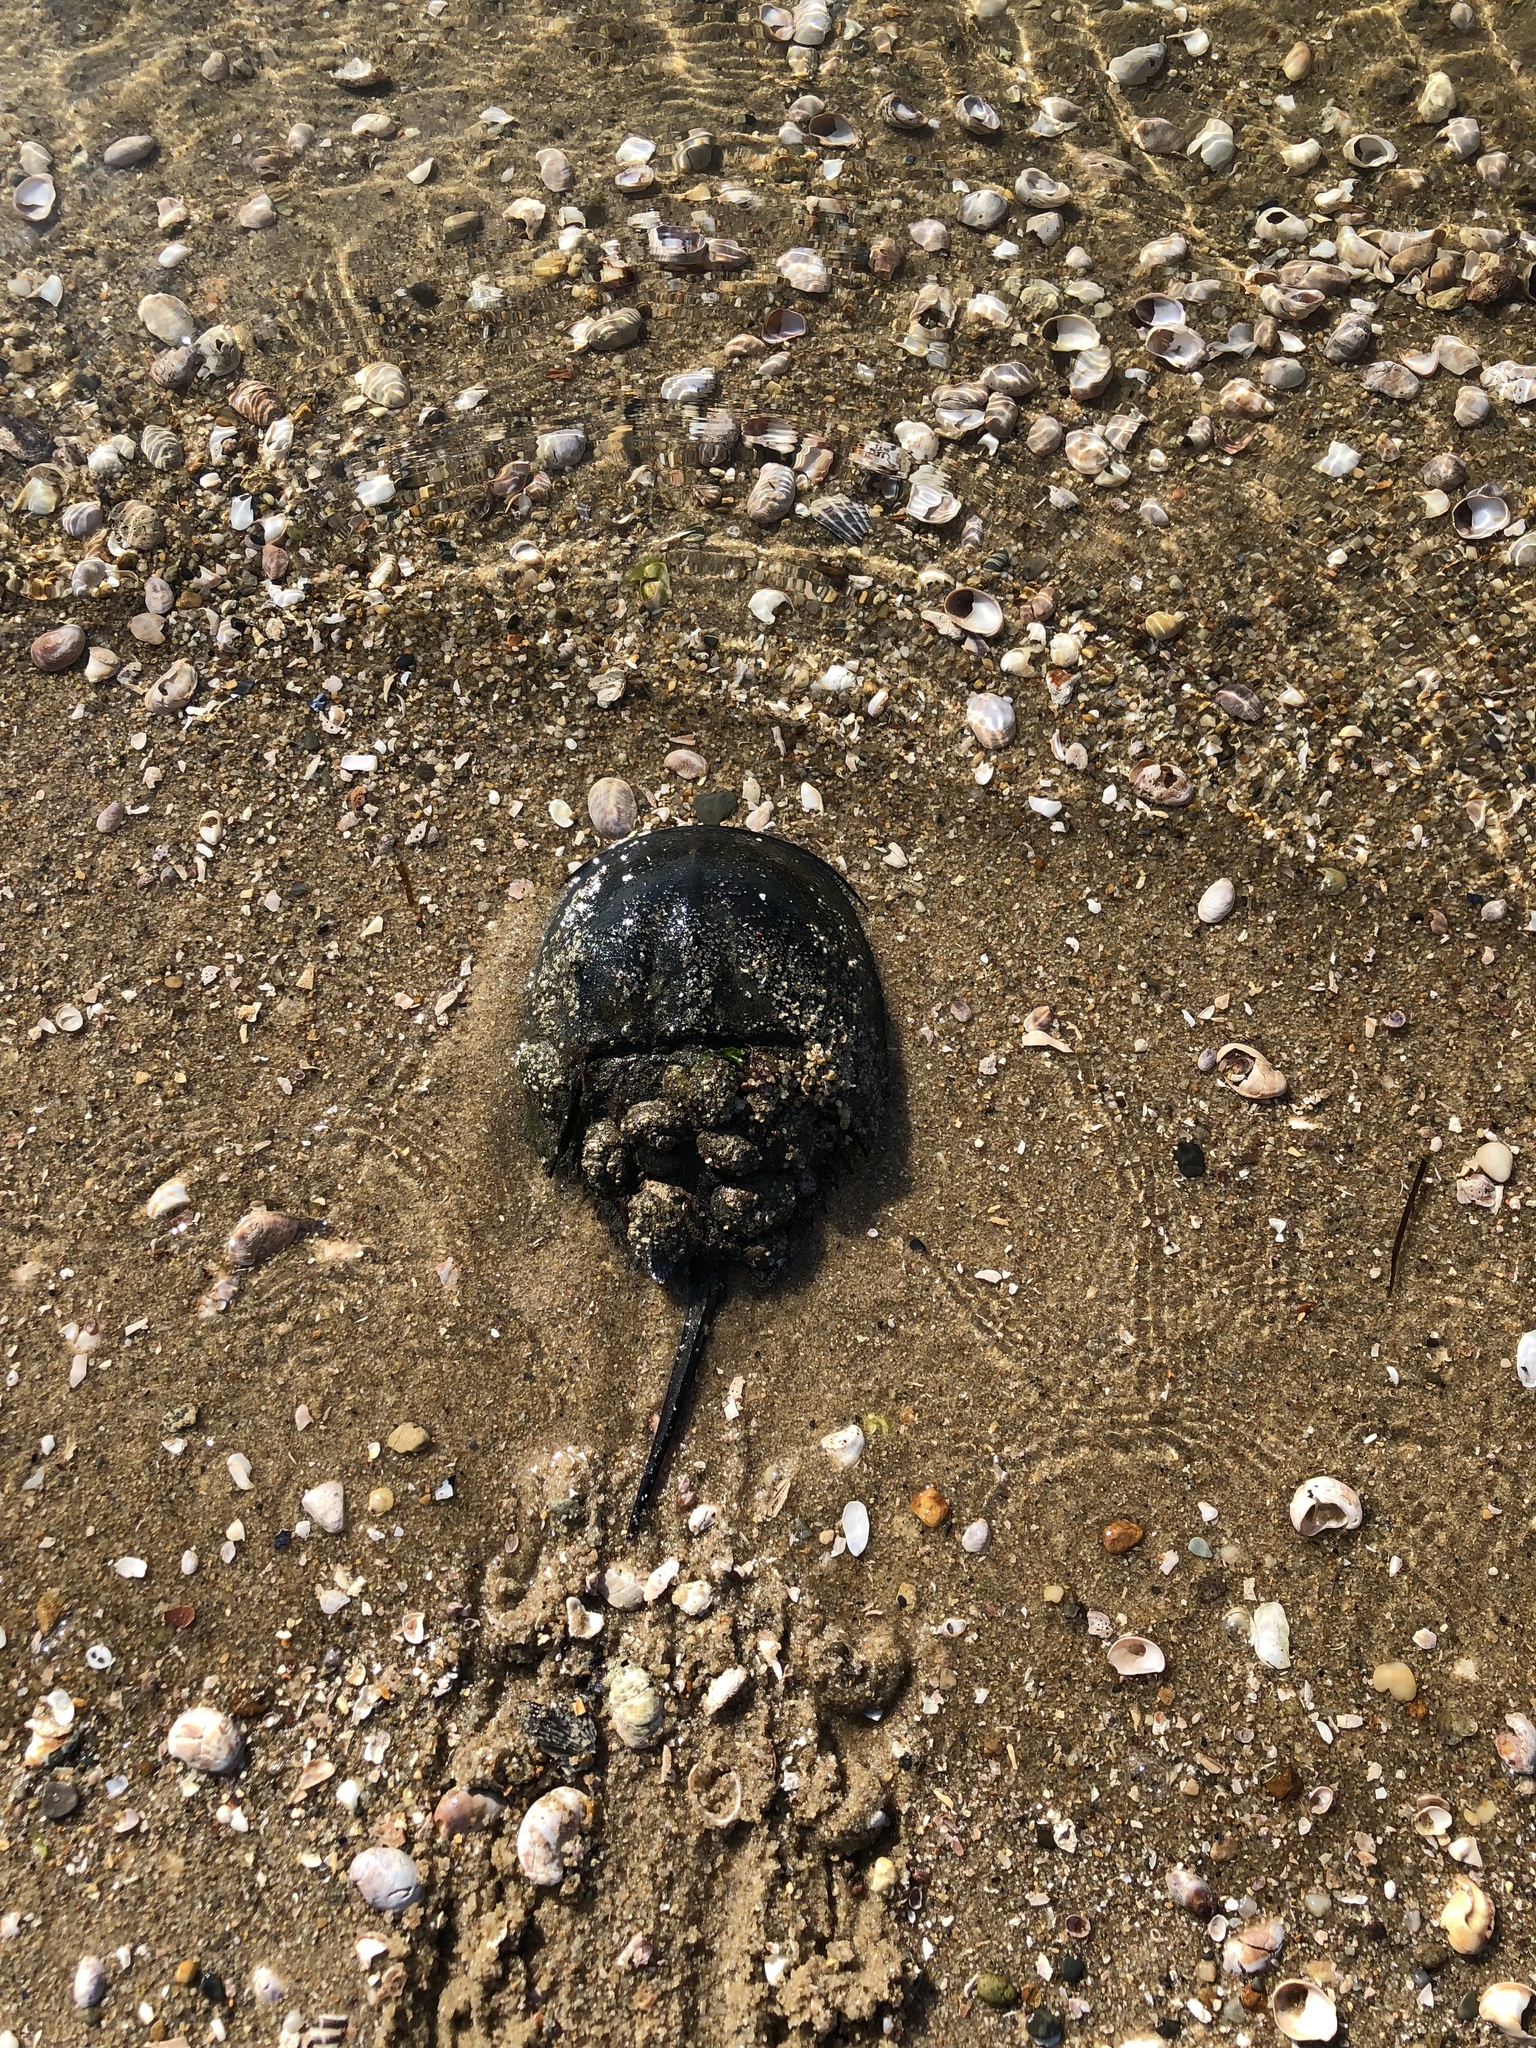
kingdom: Animalia
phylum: Arthropoda
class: Merostomata
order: Xiphosurida
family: Limulidae
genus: Limulus
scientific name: Limulus polyphemus
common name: Horseshoe crab
